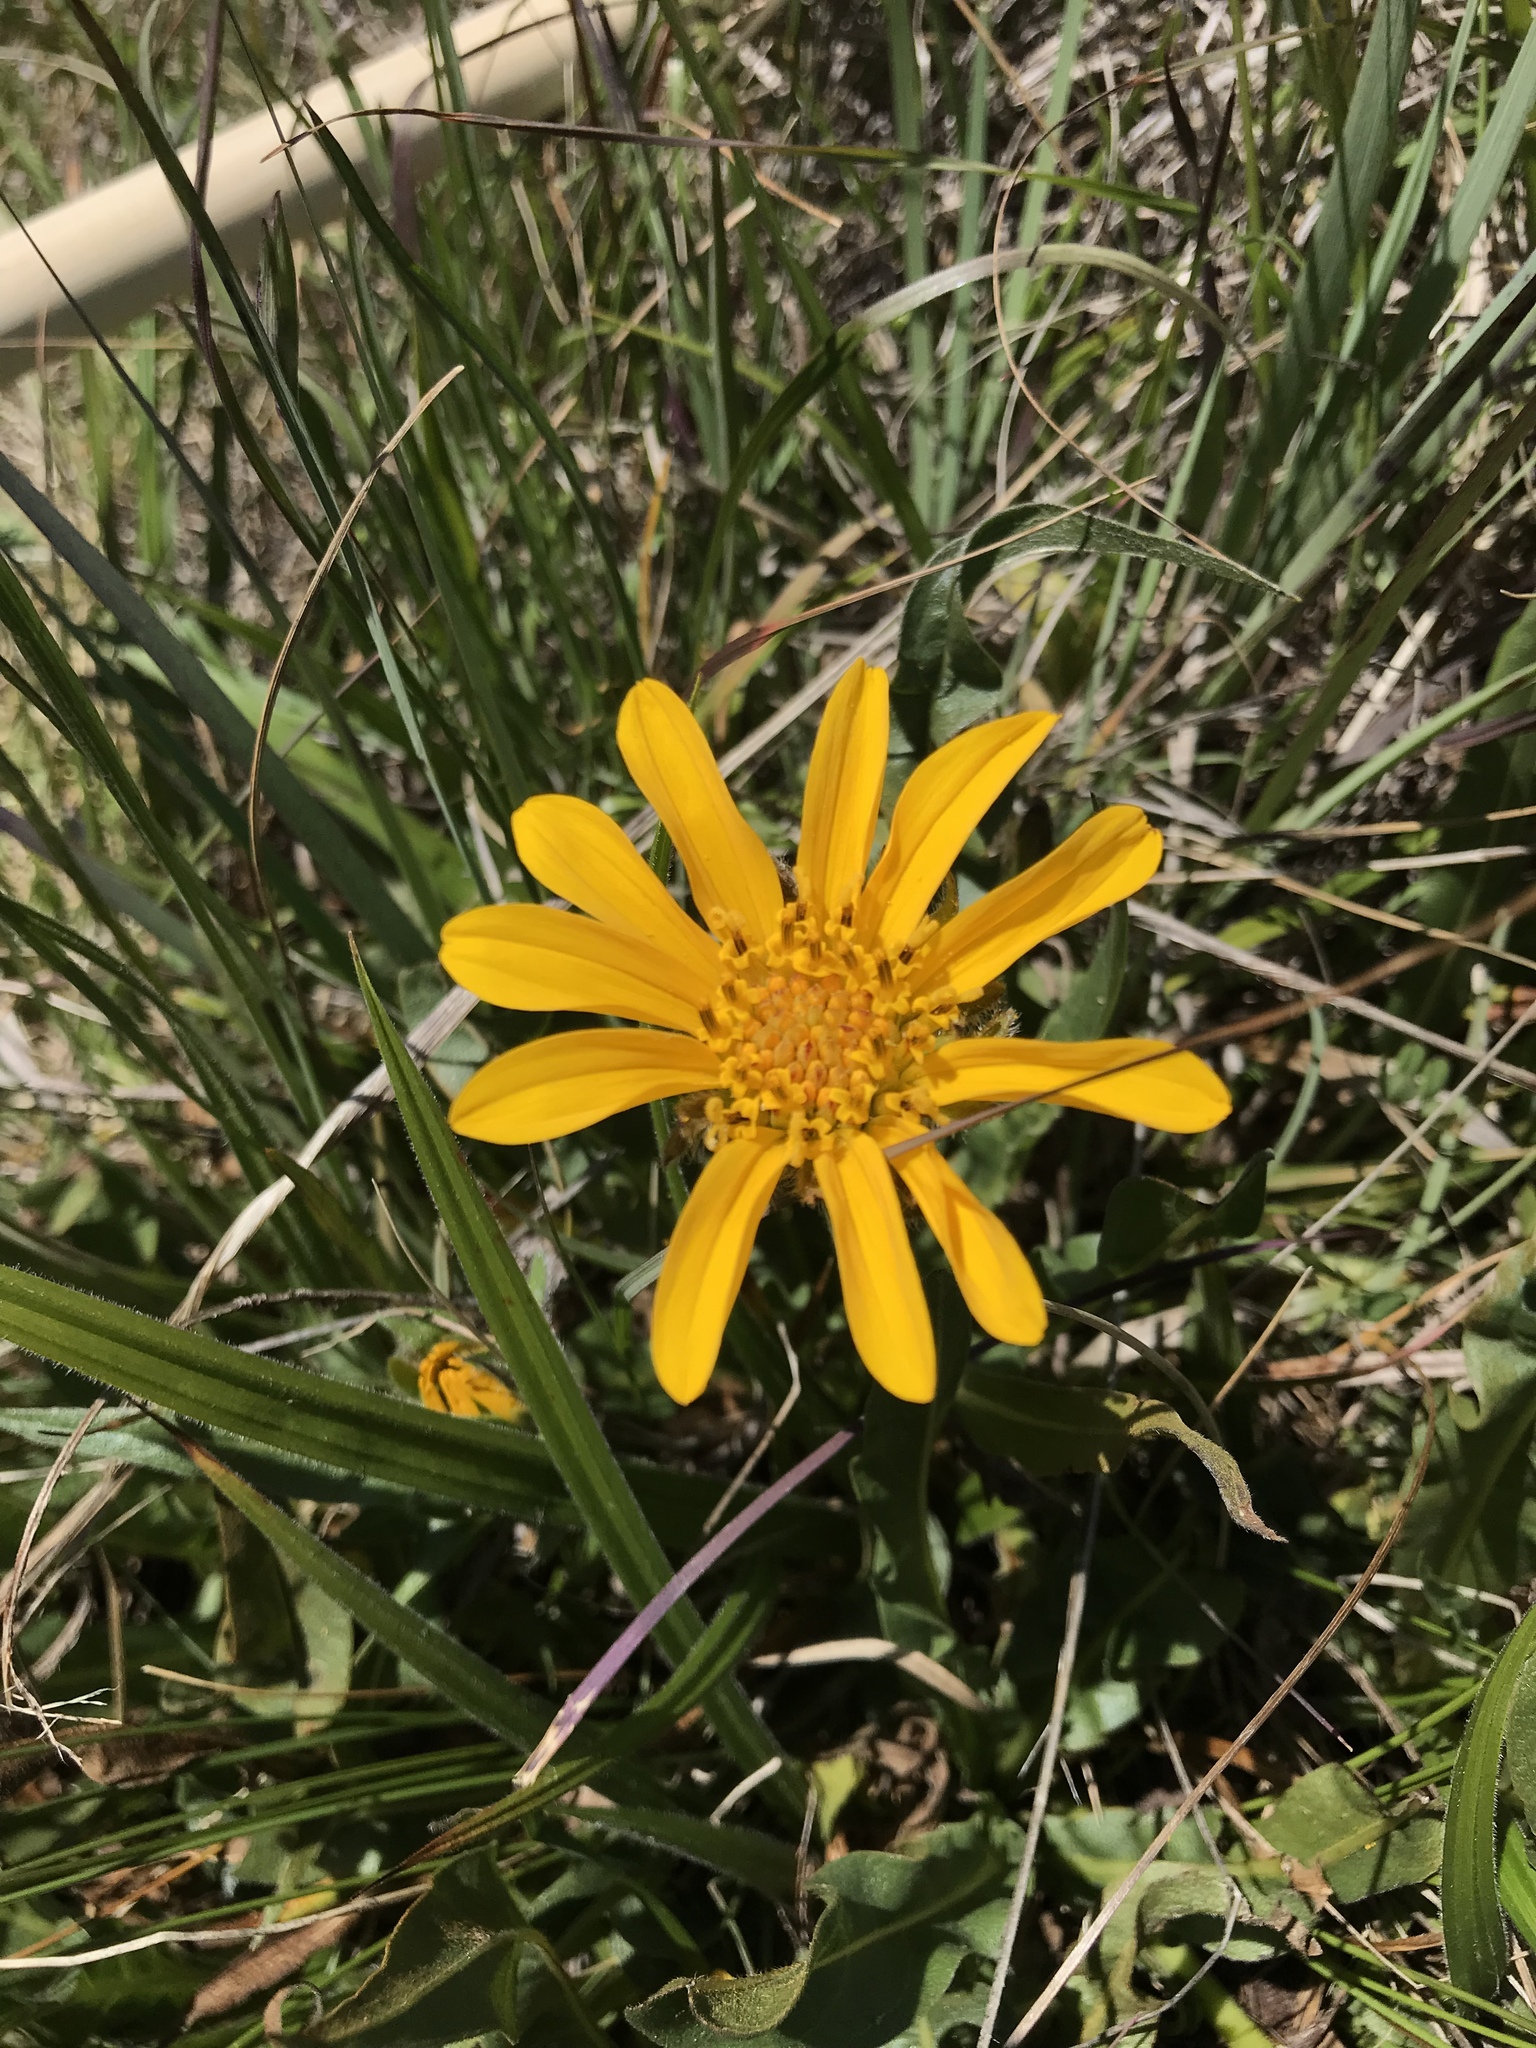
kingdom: Plantae
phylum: Tracheophyta
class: Magnoliopsida
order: Asterales
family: Asteraceae
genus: Wyethia
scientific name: Wyethia angustifolia
